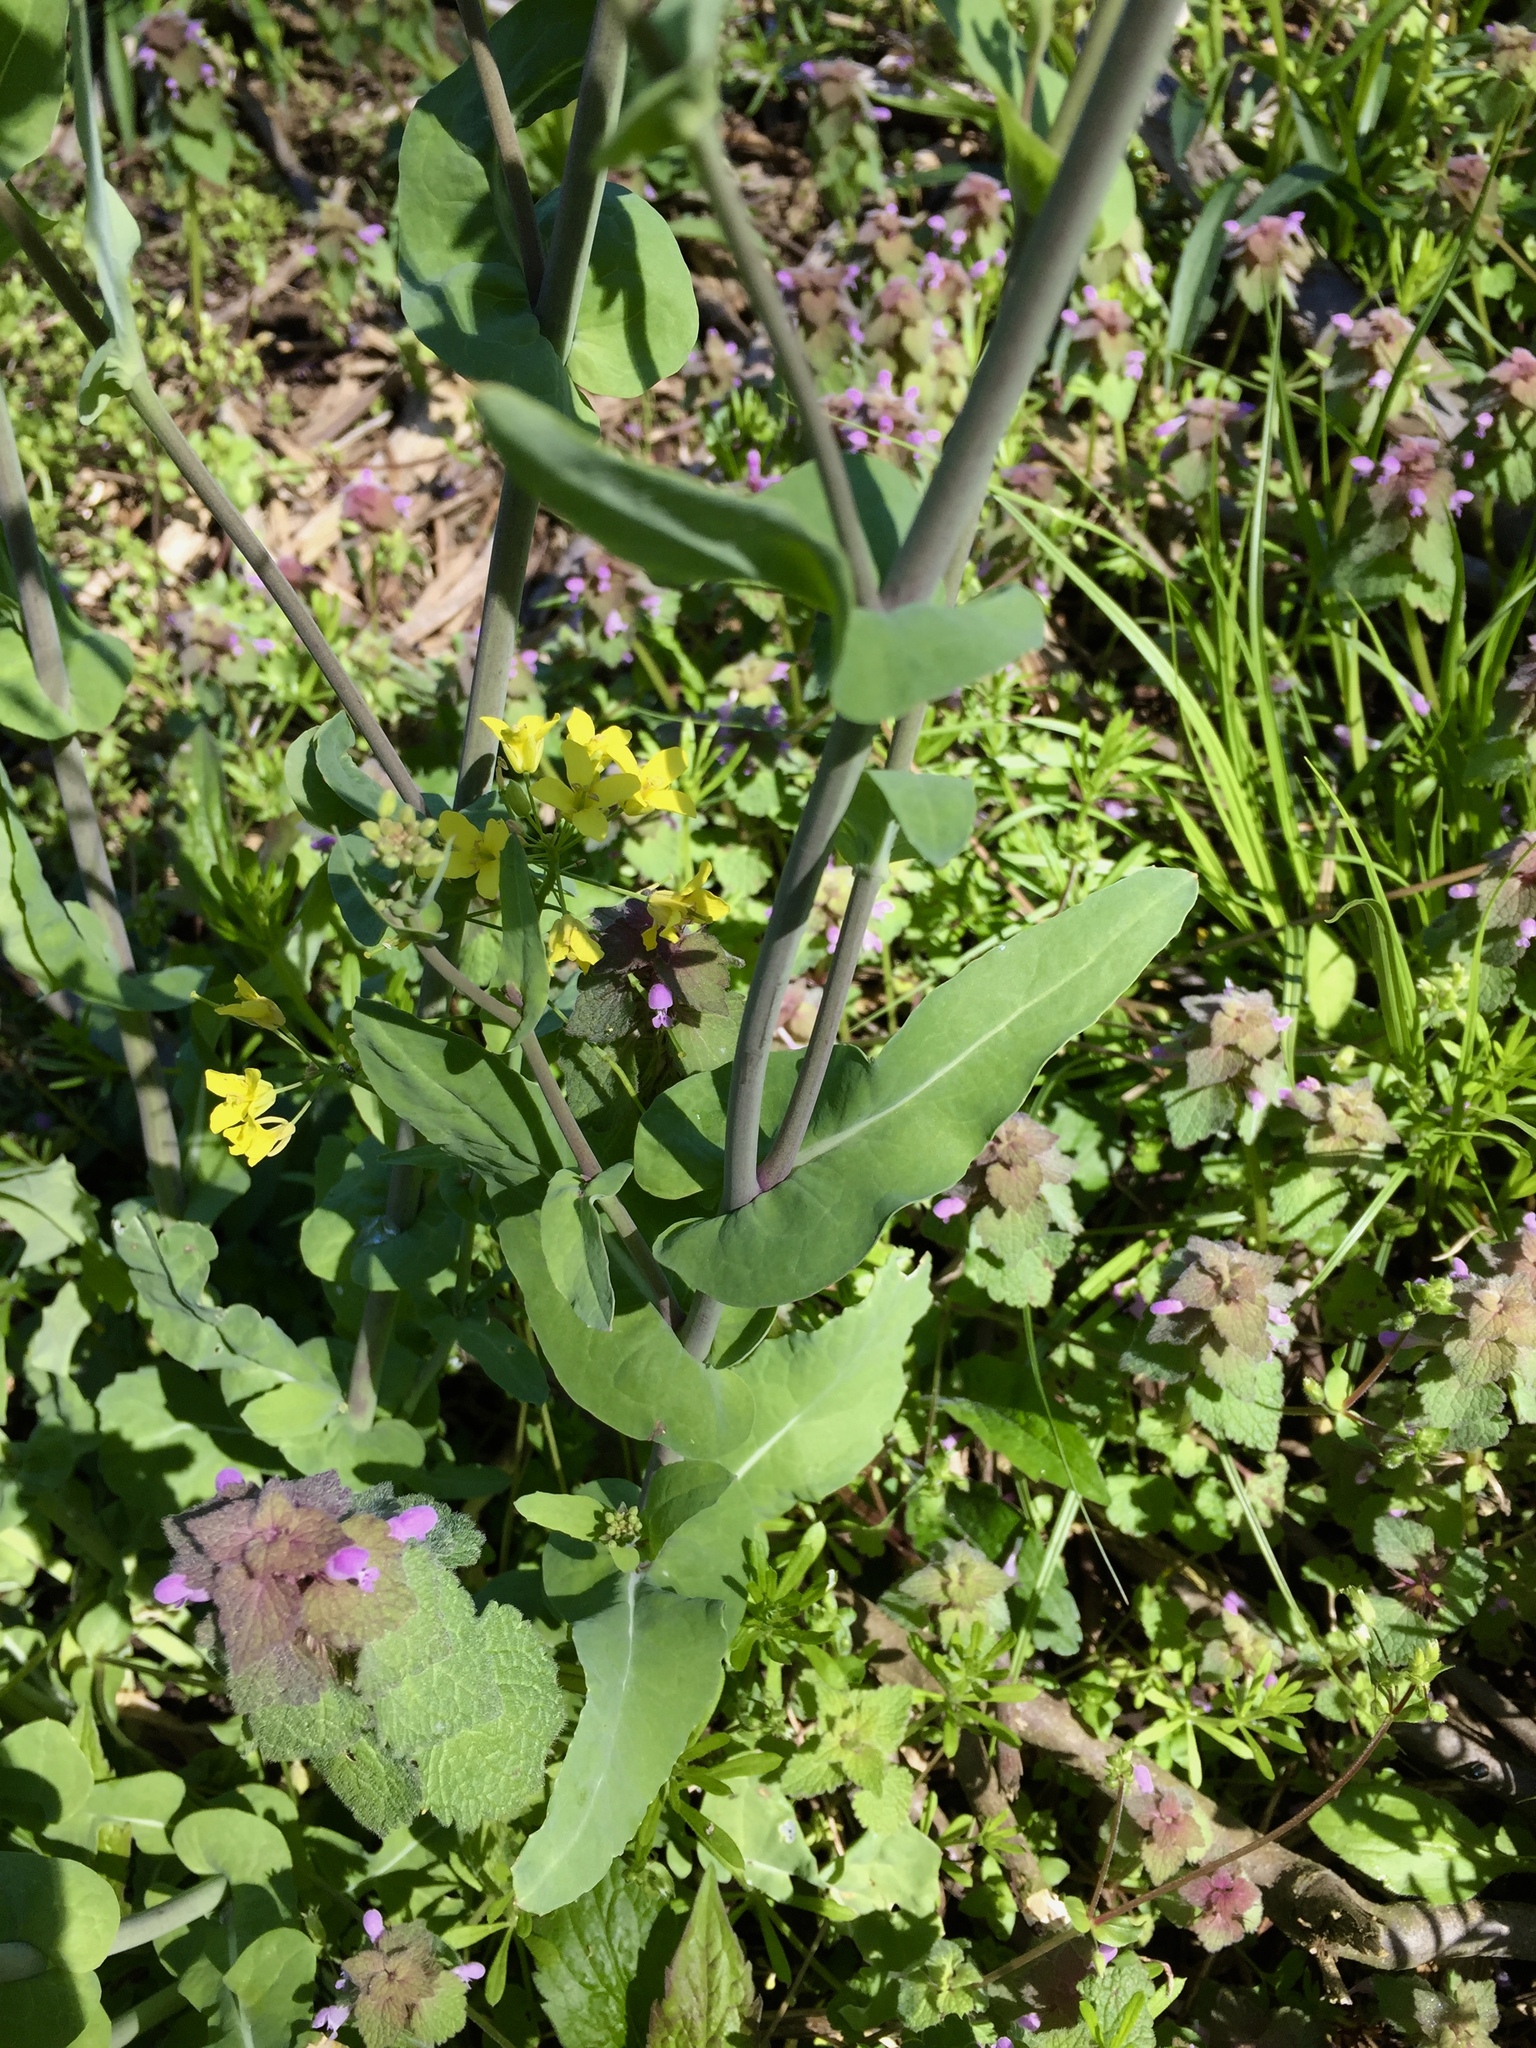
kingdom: Plantae
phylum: Tracheophyta
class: Magnoliopsida
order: Brassicales
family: Brassicaceae
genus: Brassica
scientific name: Brassica rapa
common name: Field mustard
